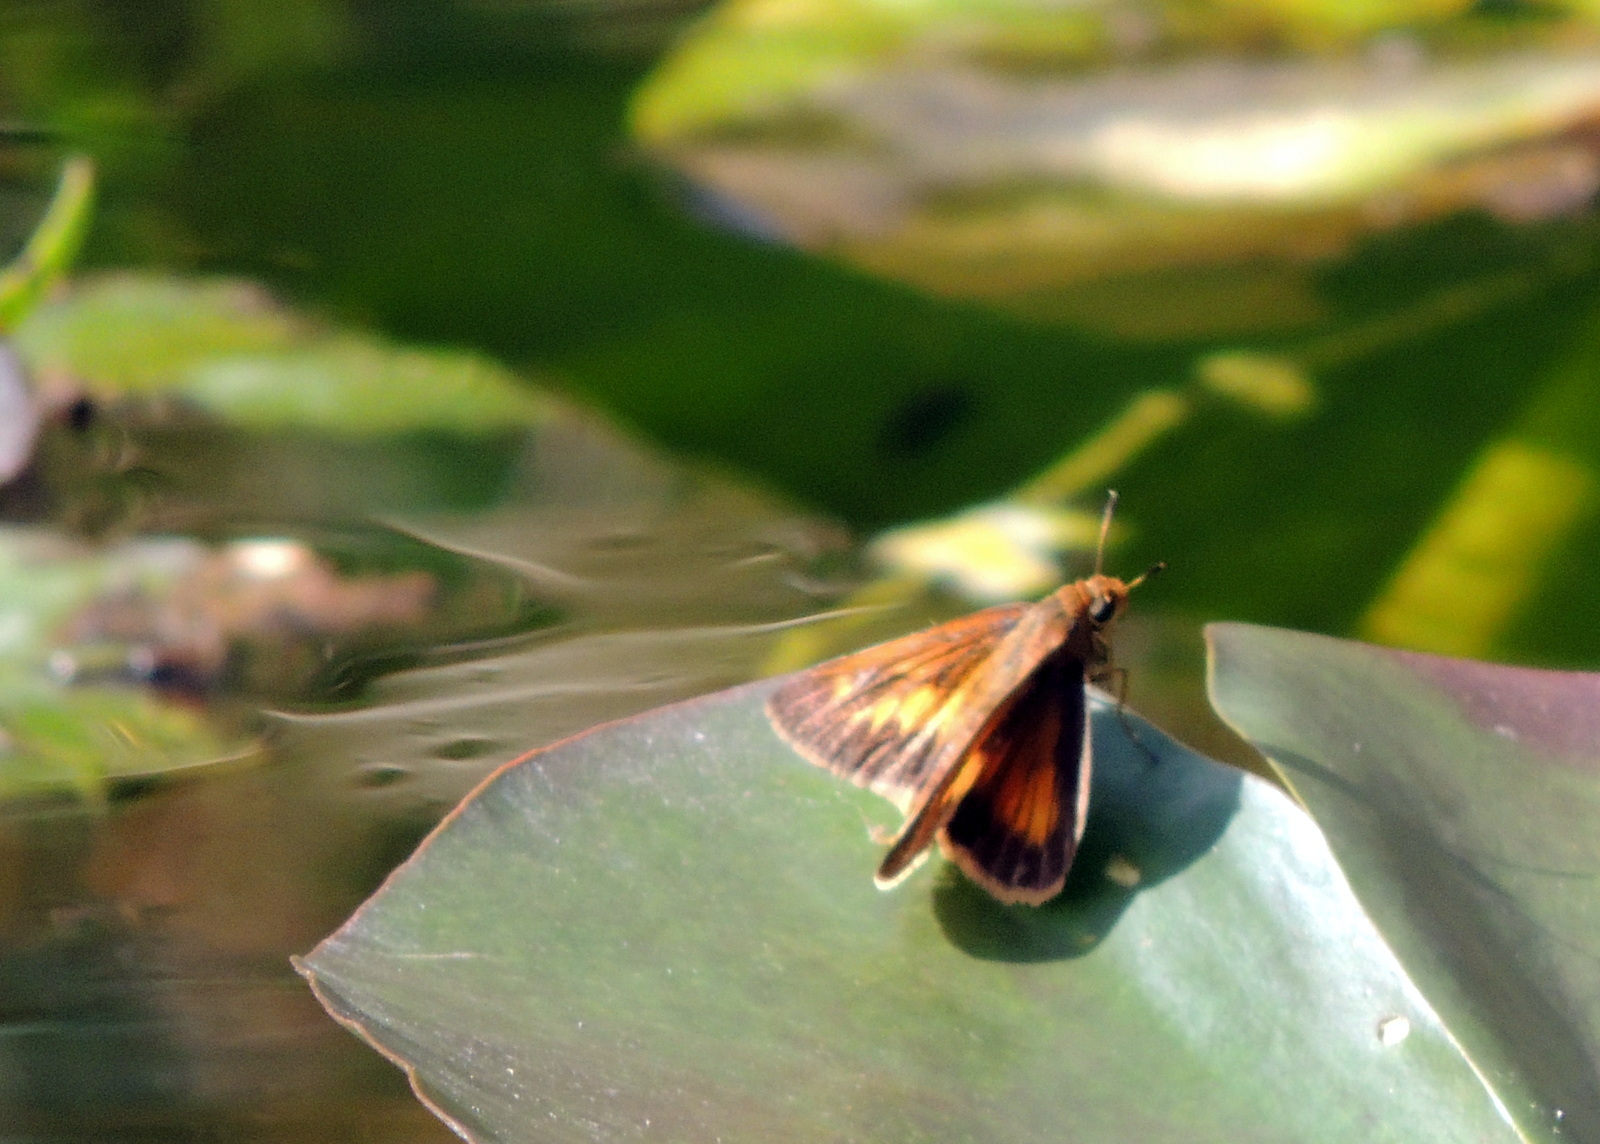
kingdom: Animalia
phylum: Arthropoda
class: Insecta
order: Lepidoptera
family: Hesperiidae
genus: Euphyes
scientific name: Euphyes berryi
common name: Berry's skipper
